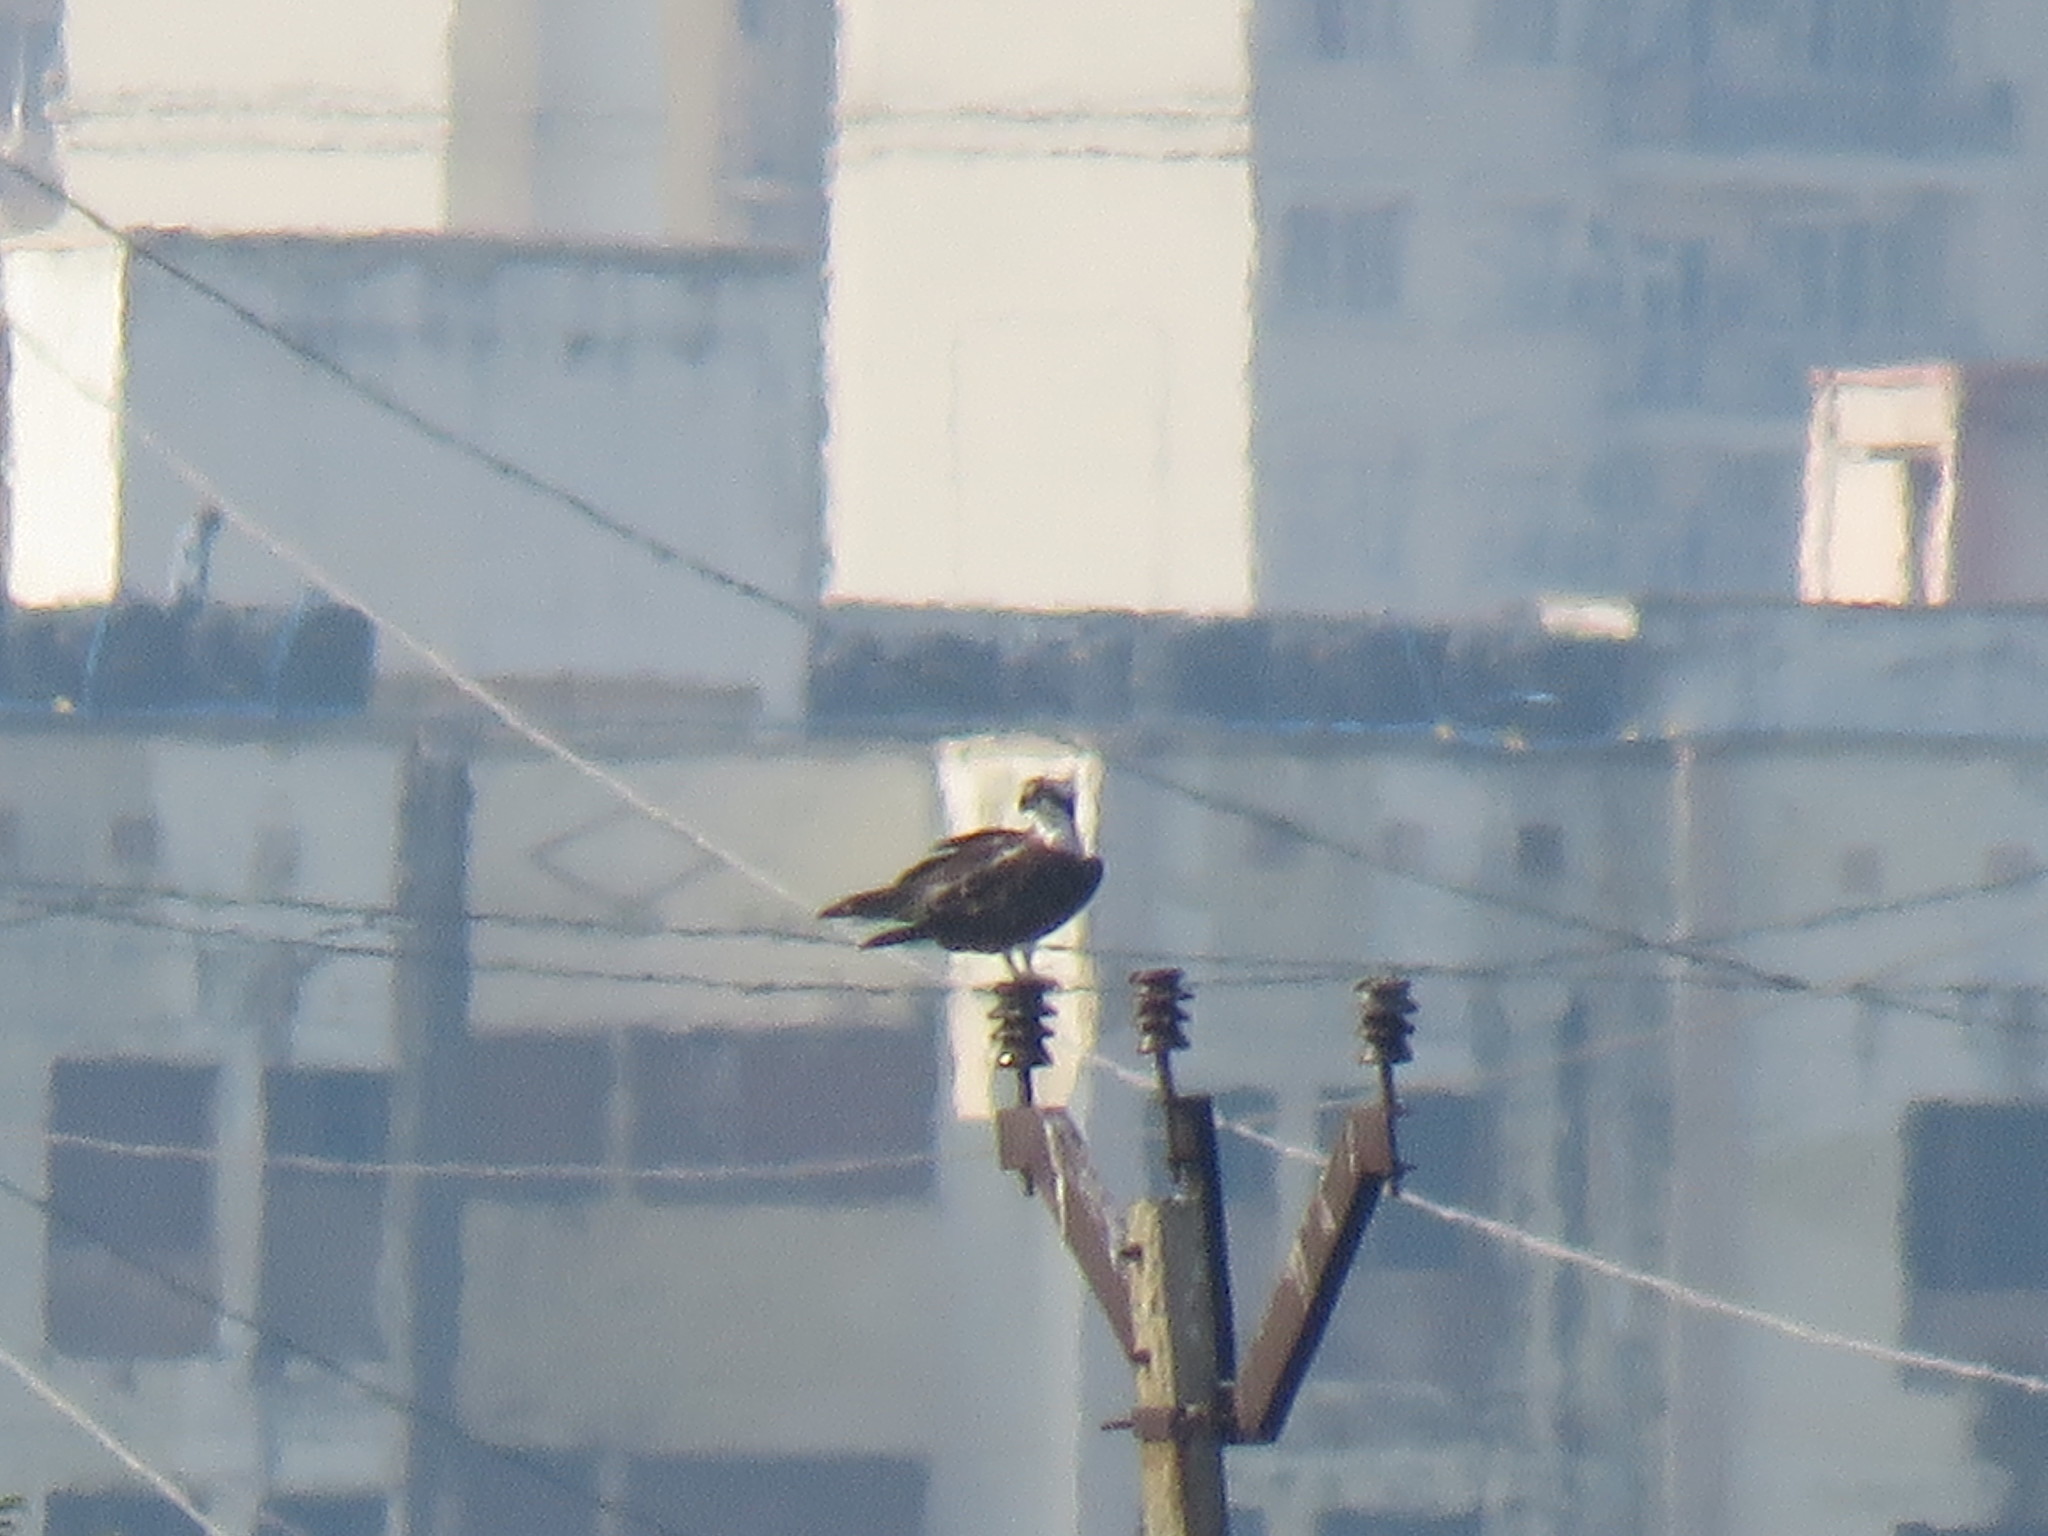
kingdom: Animalia
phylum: Chordata
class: Aves
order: Accipitriformes
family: Pandionidae
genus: Pandion
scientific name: Pandion haliaetus
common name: Osprey
